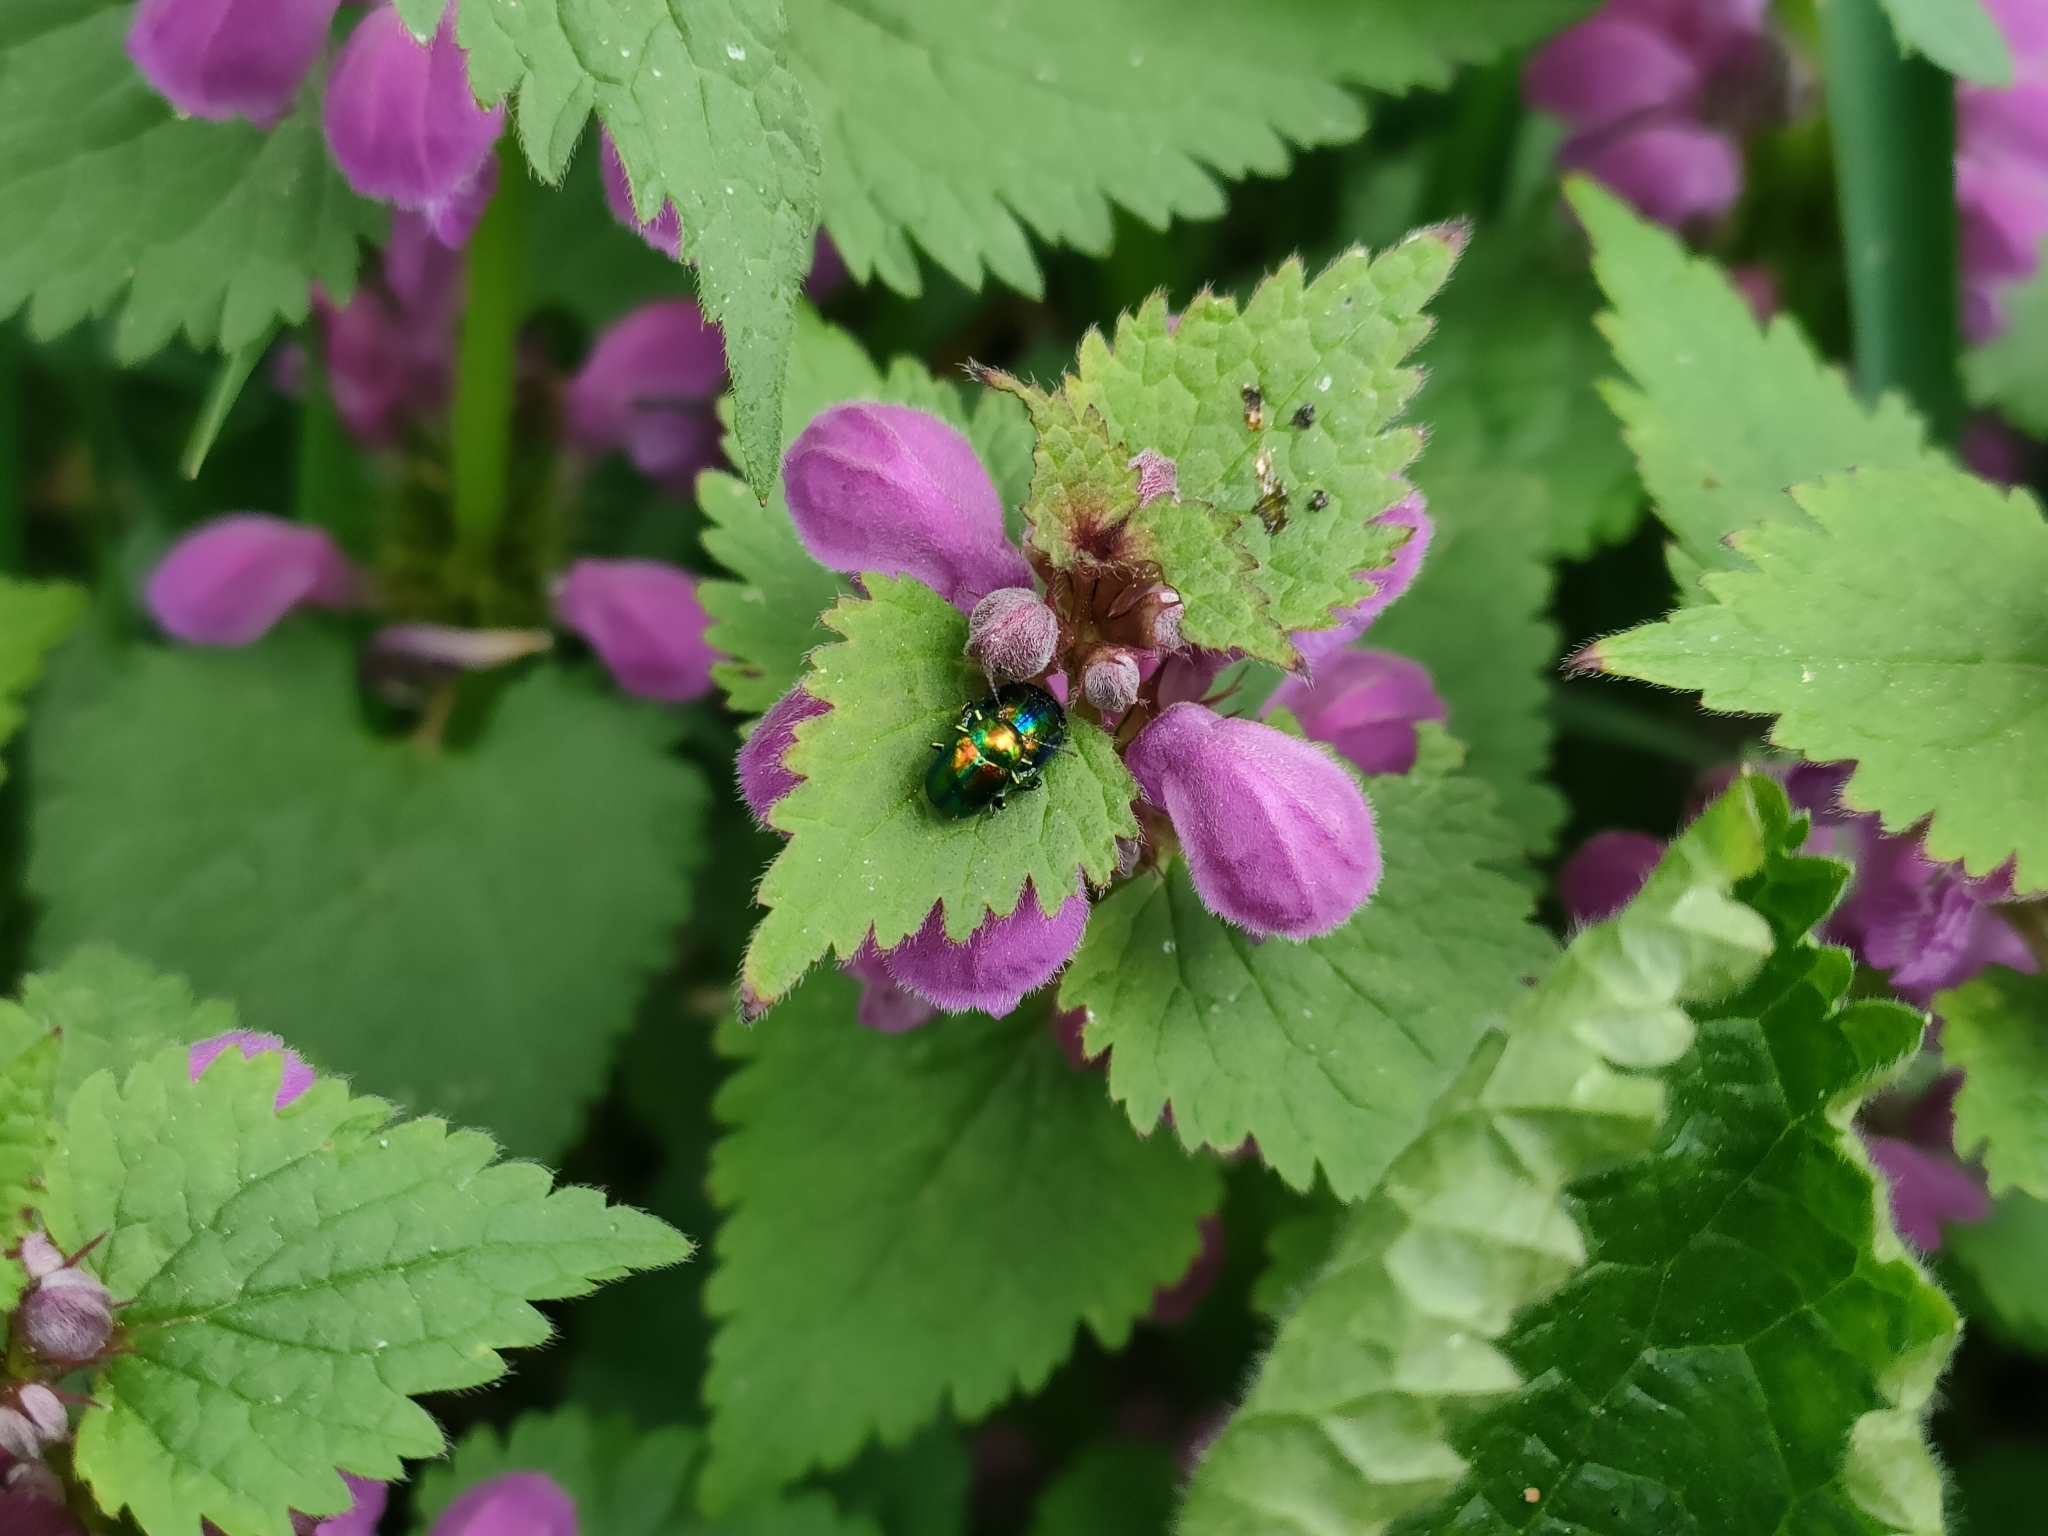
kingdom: Plantae
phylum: Tracheophyta
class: Magnoliopsida
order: Lamiales
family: Lamiaceae
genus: Lamium
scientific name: Lamium maculatum
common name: Spotted dead-nettle
